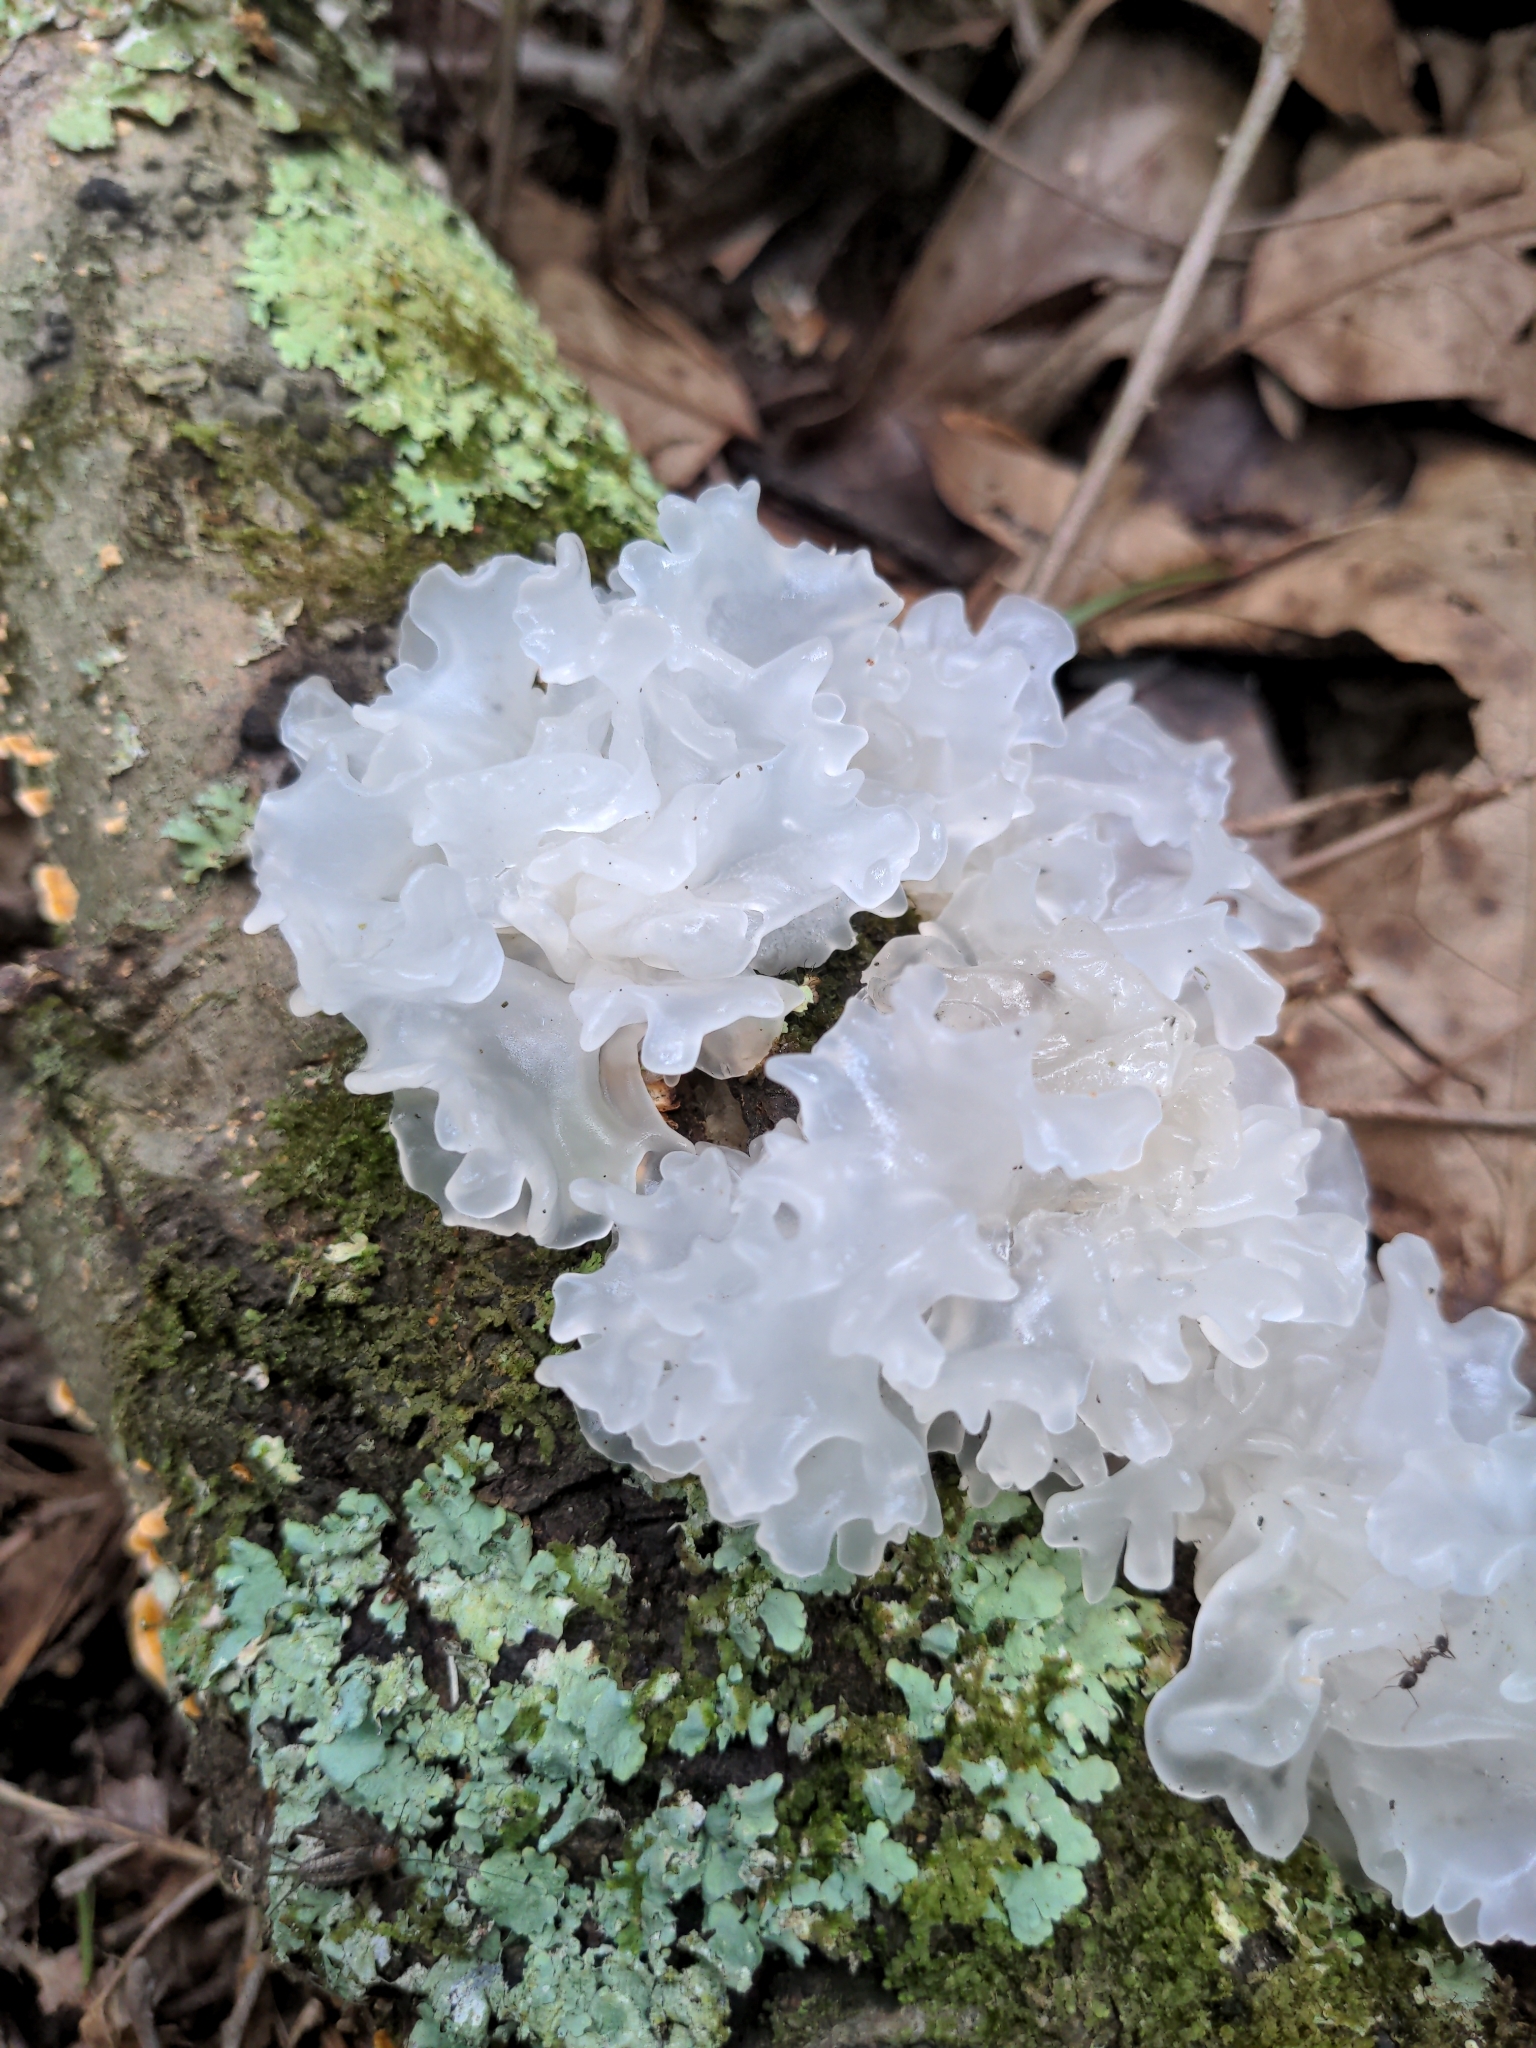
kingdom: Fungi
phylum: Basidiomycota
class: Tremellomycetes
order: Tremellales
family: Tremellaceae
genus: Tremella
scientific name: Tremella fuciformis
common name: Snow fungus
